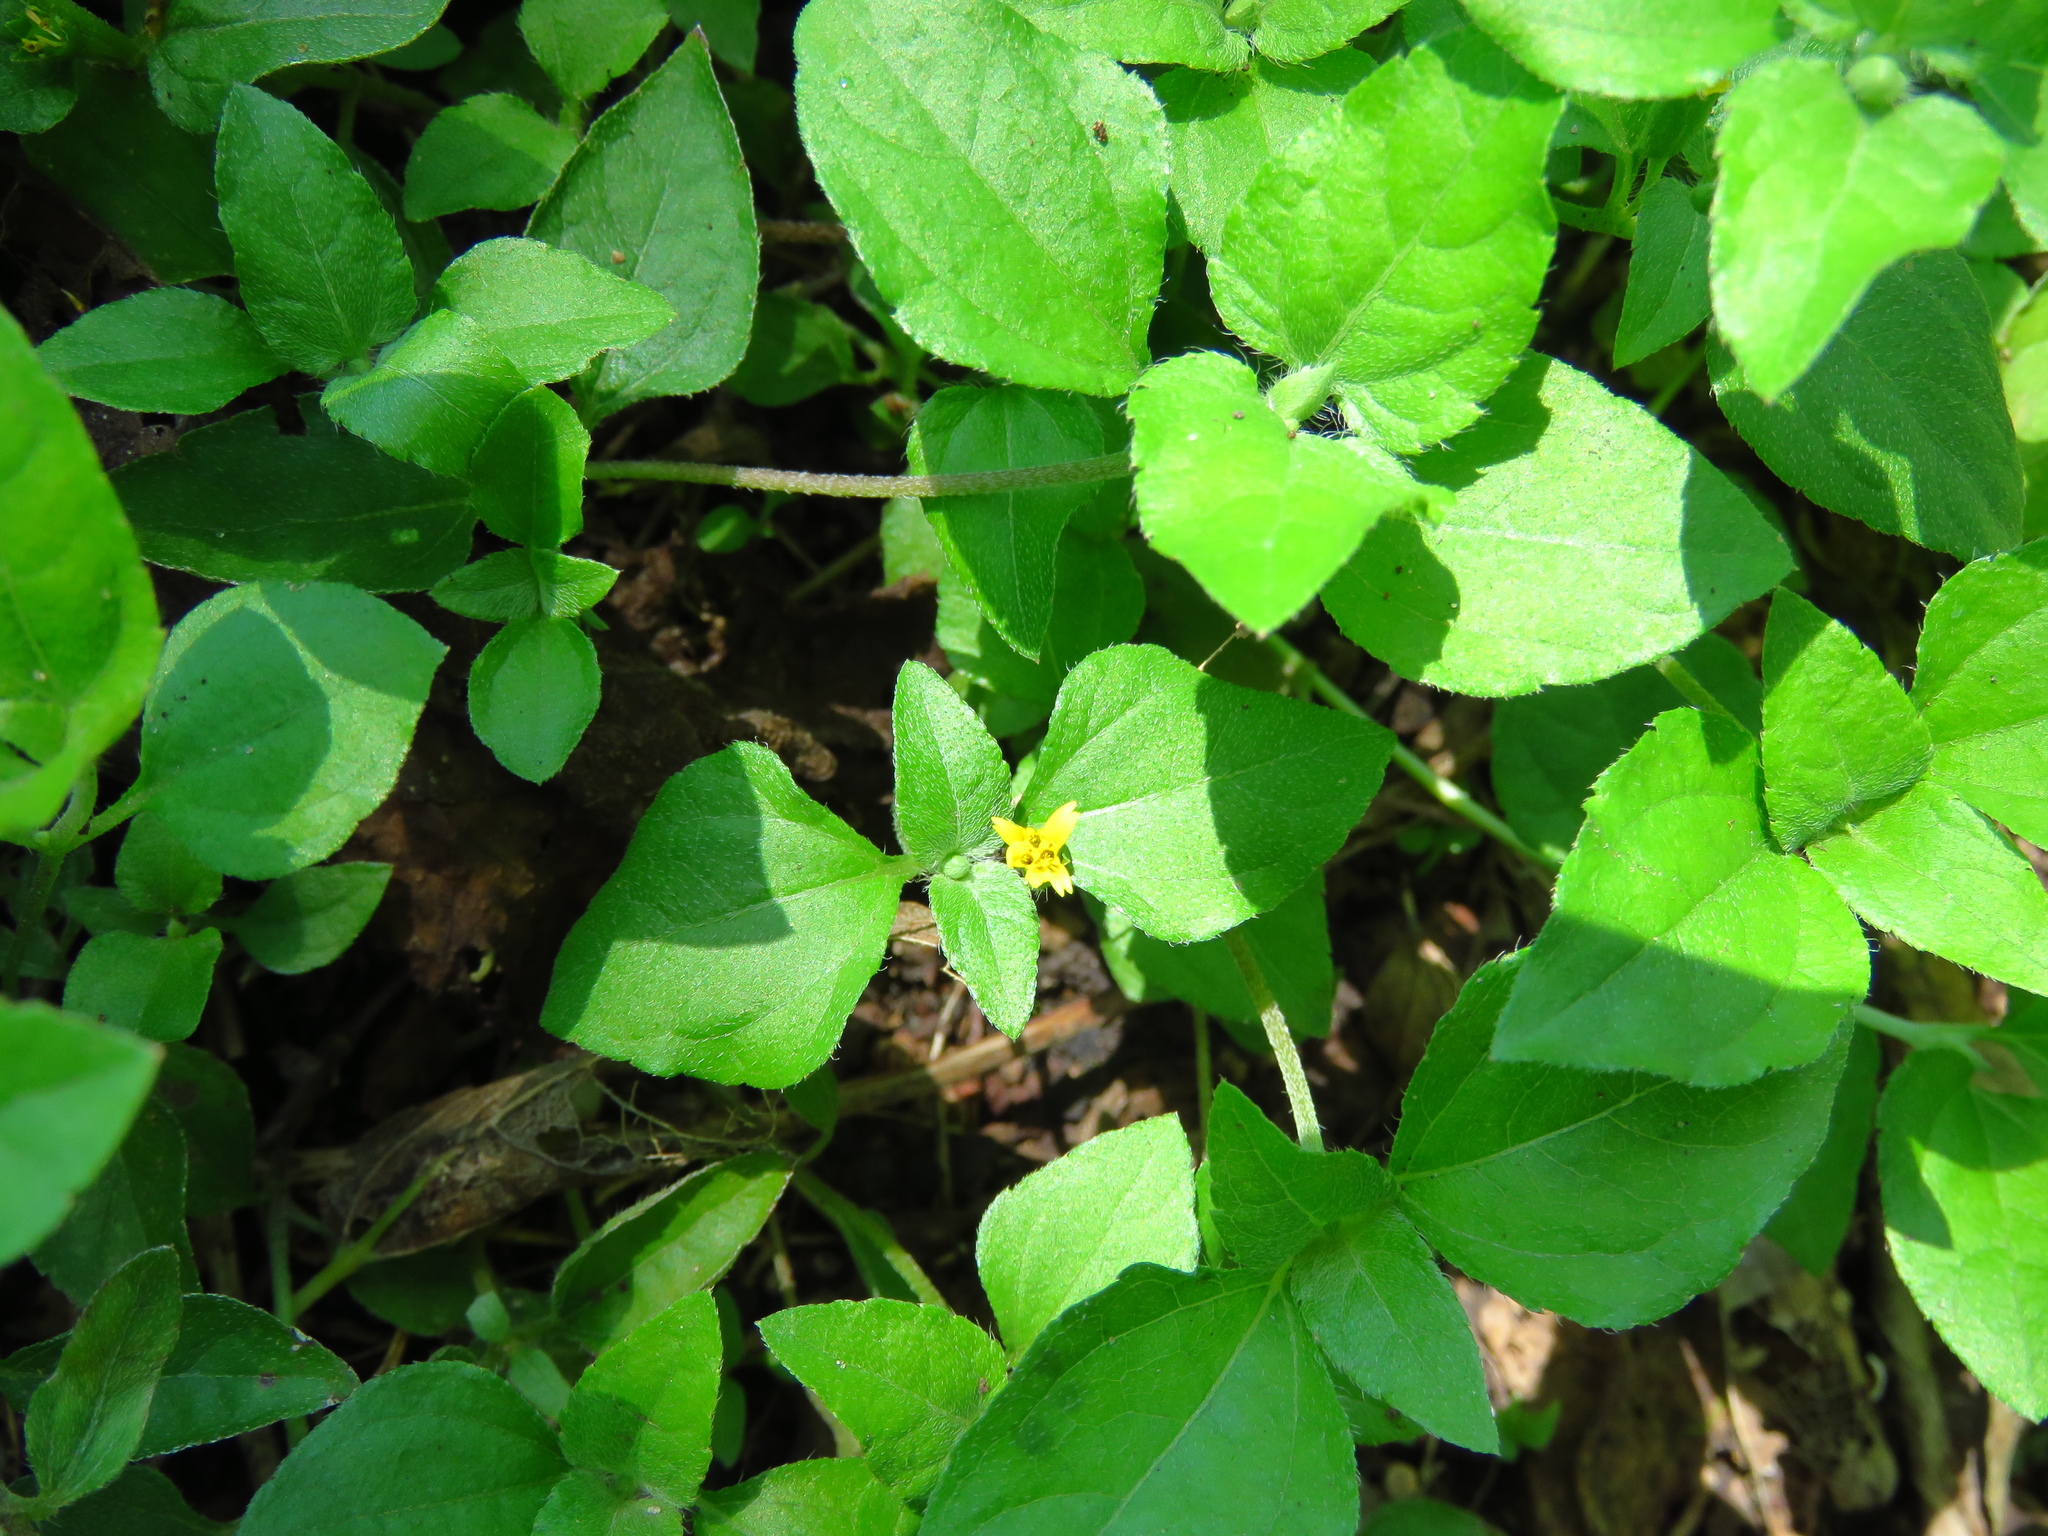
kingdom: Plantae
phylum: Tracheophyta
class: Magnoliopsida
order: Asterales
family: Asteraceae
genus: Calyptocarpus
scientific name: Calyptocarpus vialis
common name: Straggler daisy
